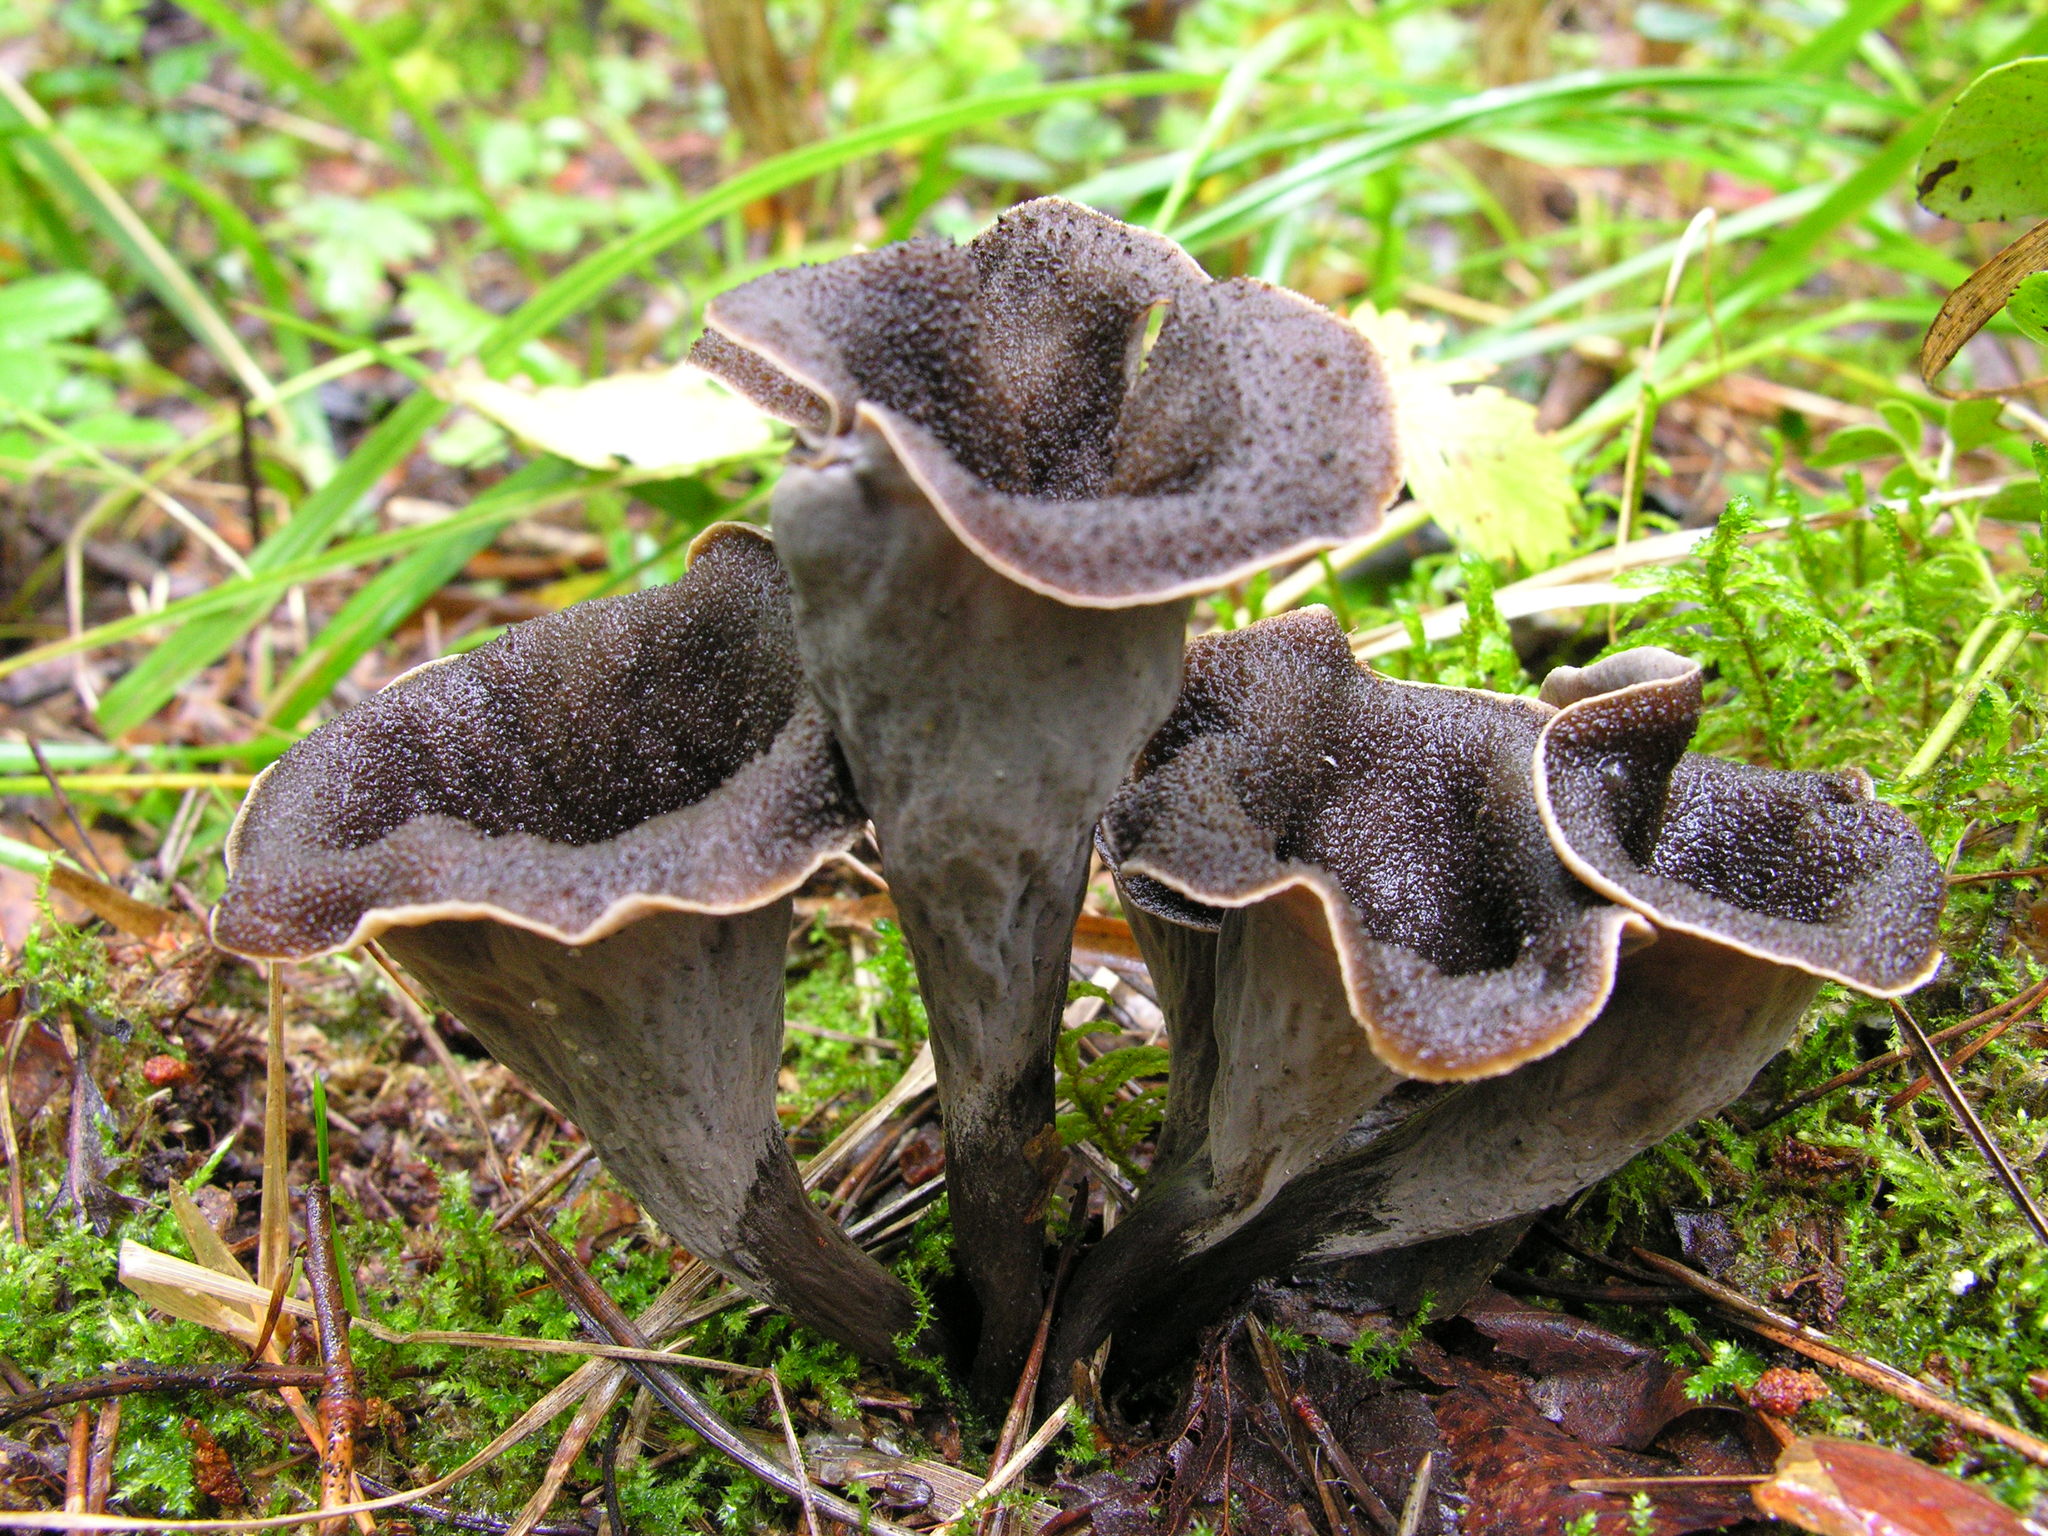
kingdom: Fungi
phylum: Basidiomycota
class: Agaricomycetes
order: Cantharellales
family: Hydnaceae
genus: Craterellus
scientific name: Craterellus cornucopioides
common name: Horn of plenty
